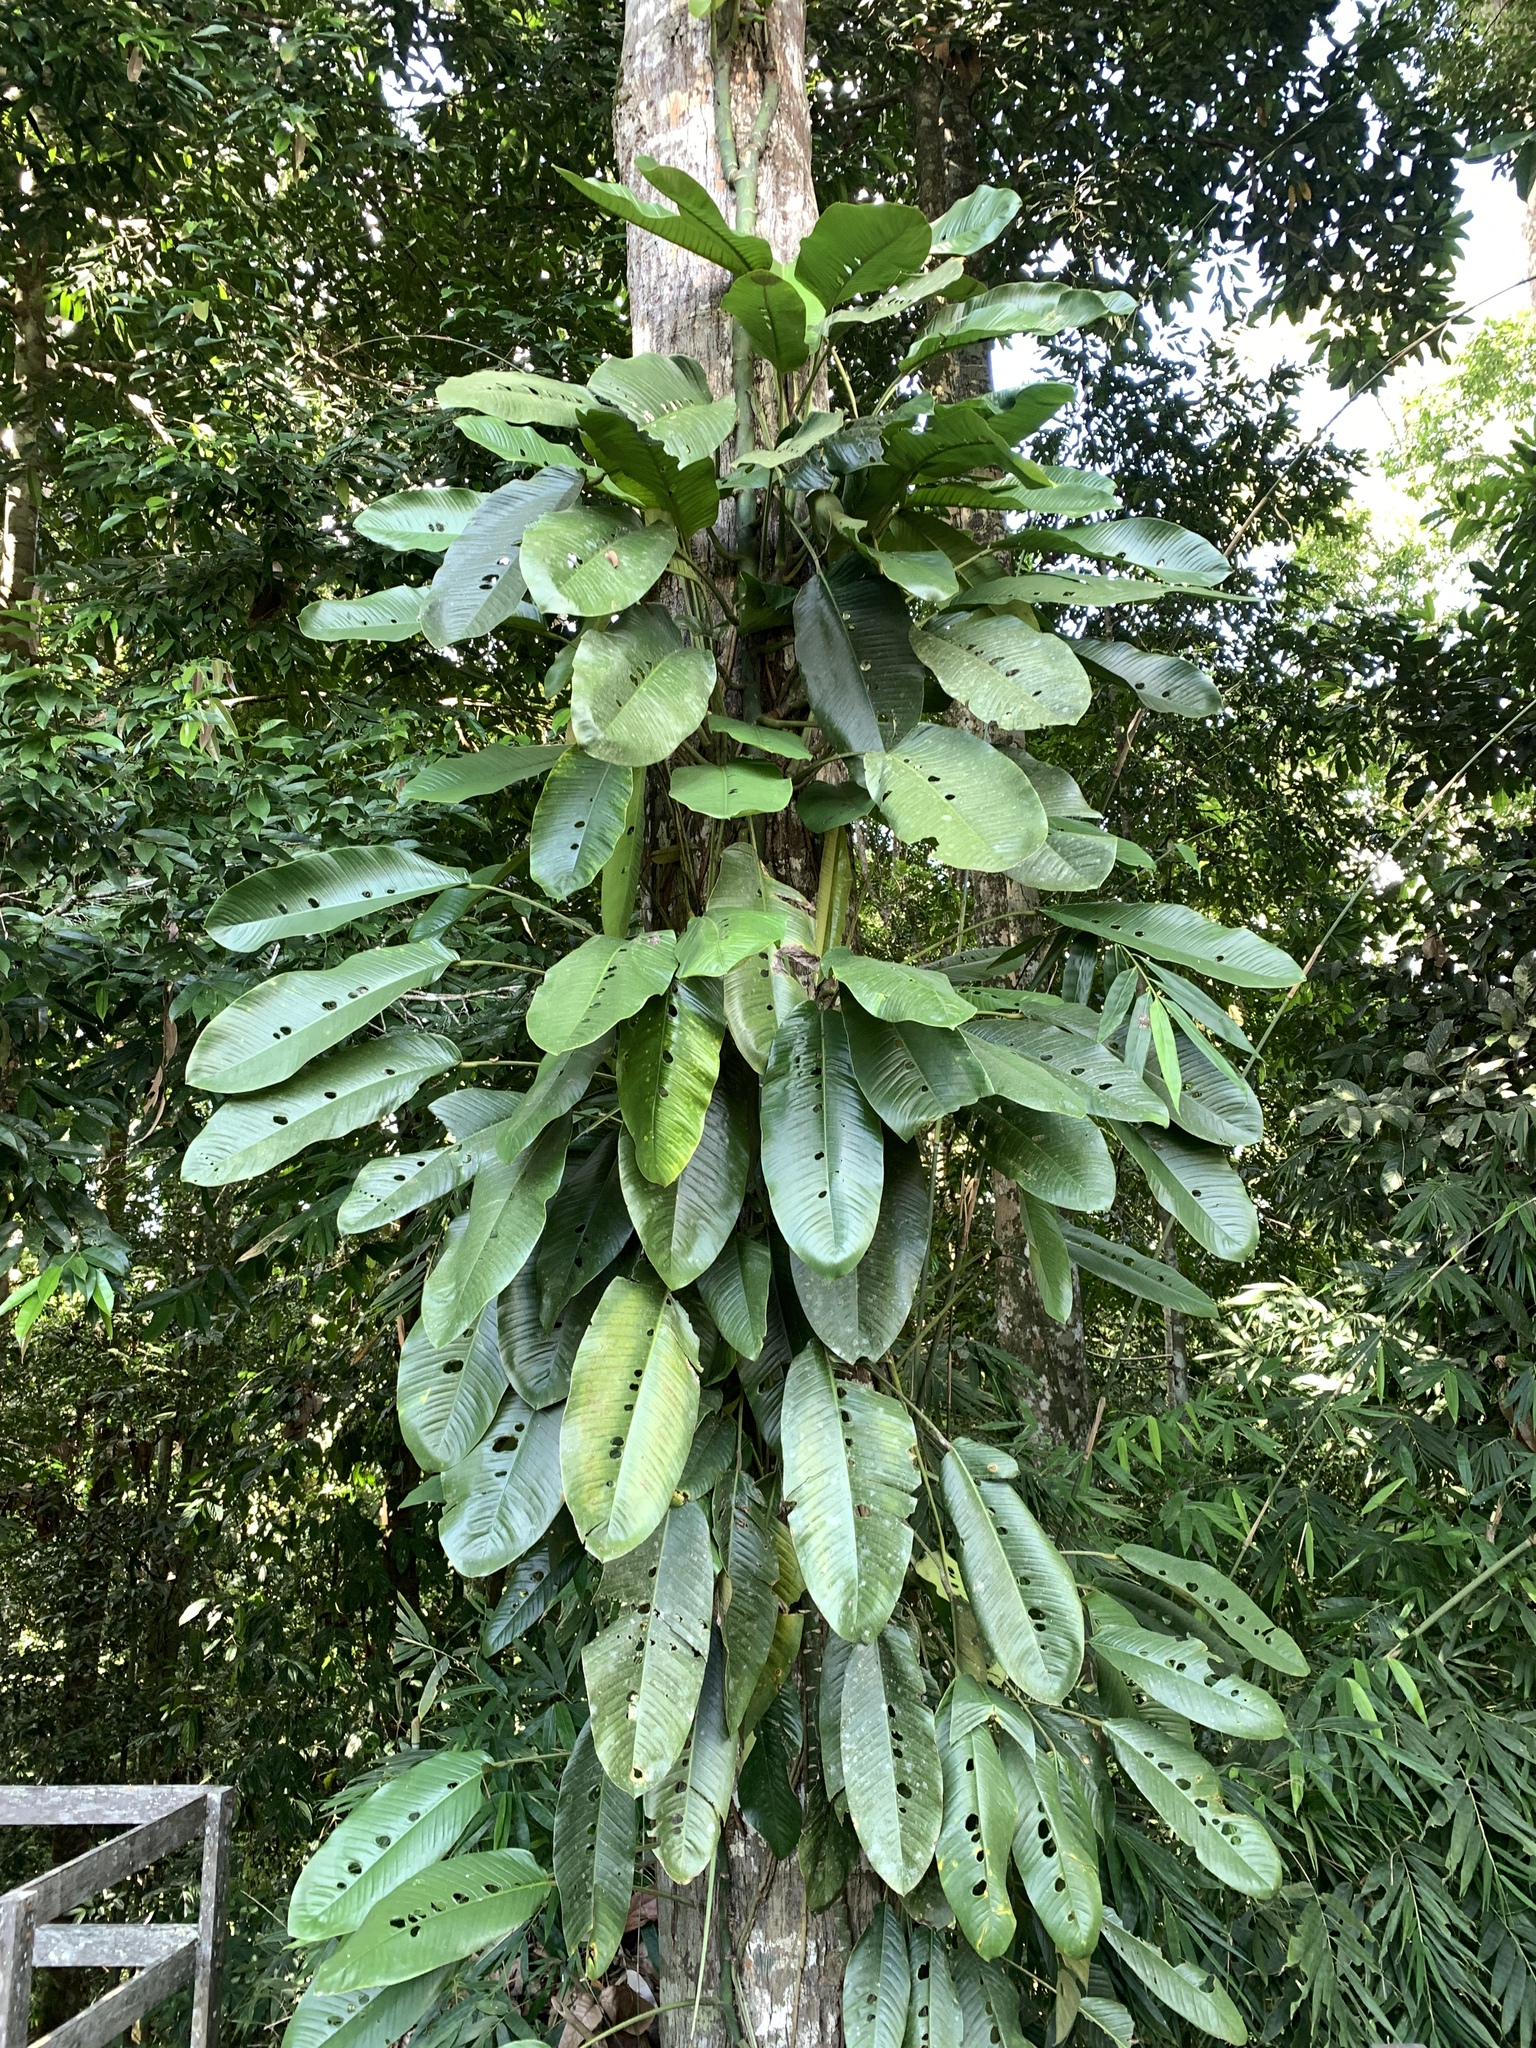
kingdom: Plantae
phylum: Tracheophyta
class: Liliopsida
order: Alismatales
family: Araceae
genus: Rhaphidophora
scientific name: Rhaphidophora foraminifera
